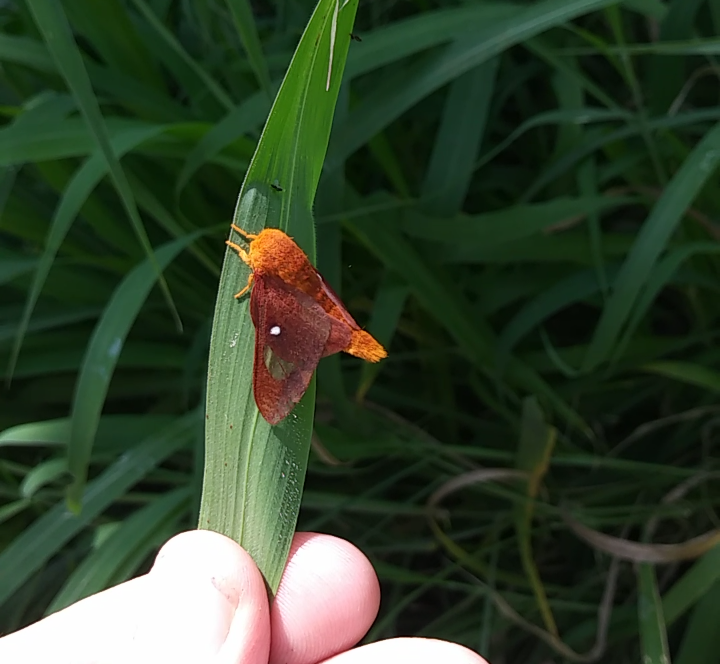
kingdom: Animalia
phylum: Arthropoda
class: Insecta
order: Lepidoptera
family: Saturniidae
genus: Anisota
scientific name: Anisota virginiensis
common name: Pink striped oakworm moth
